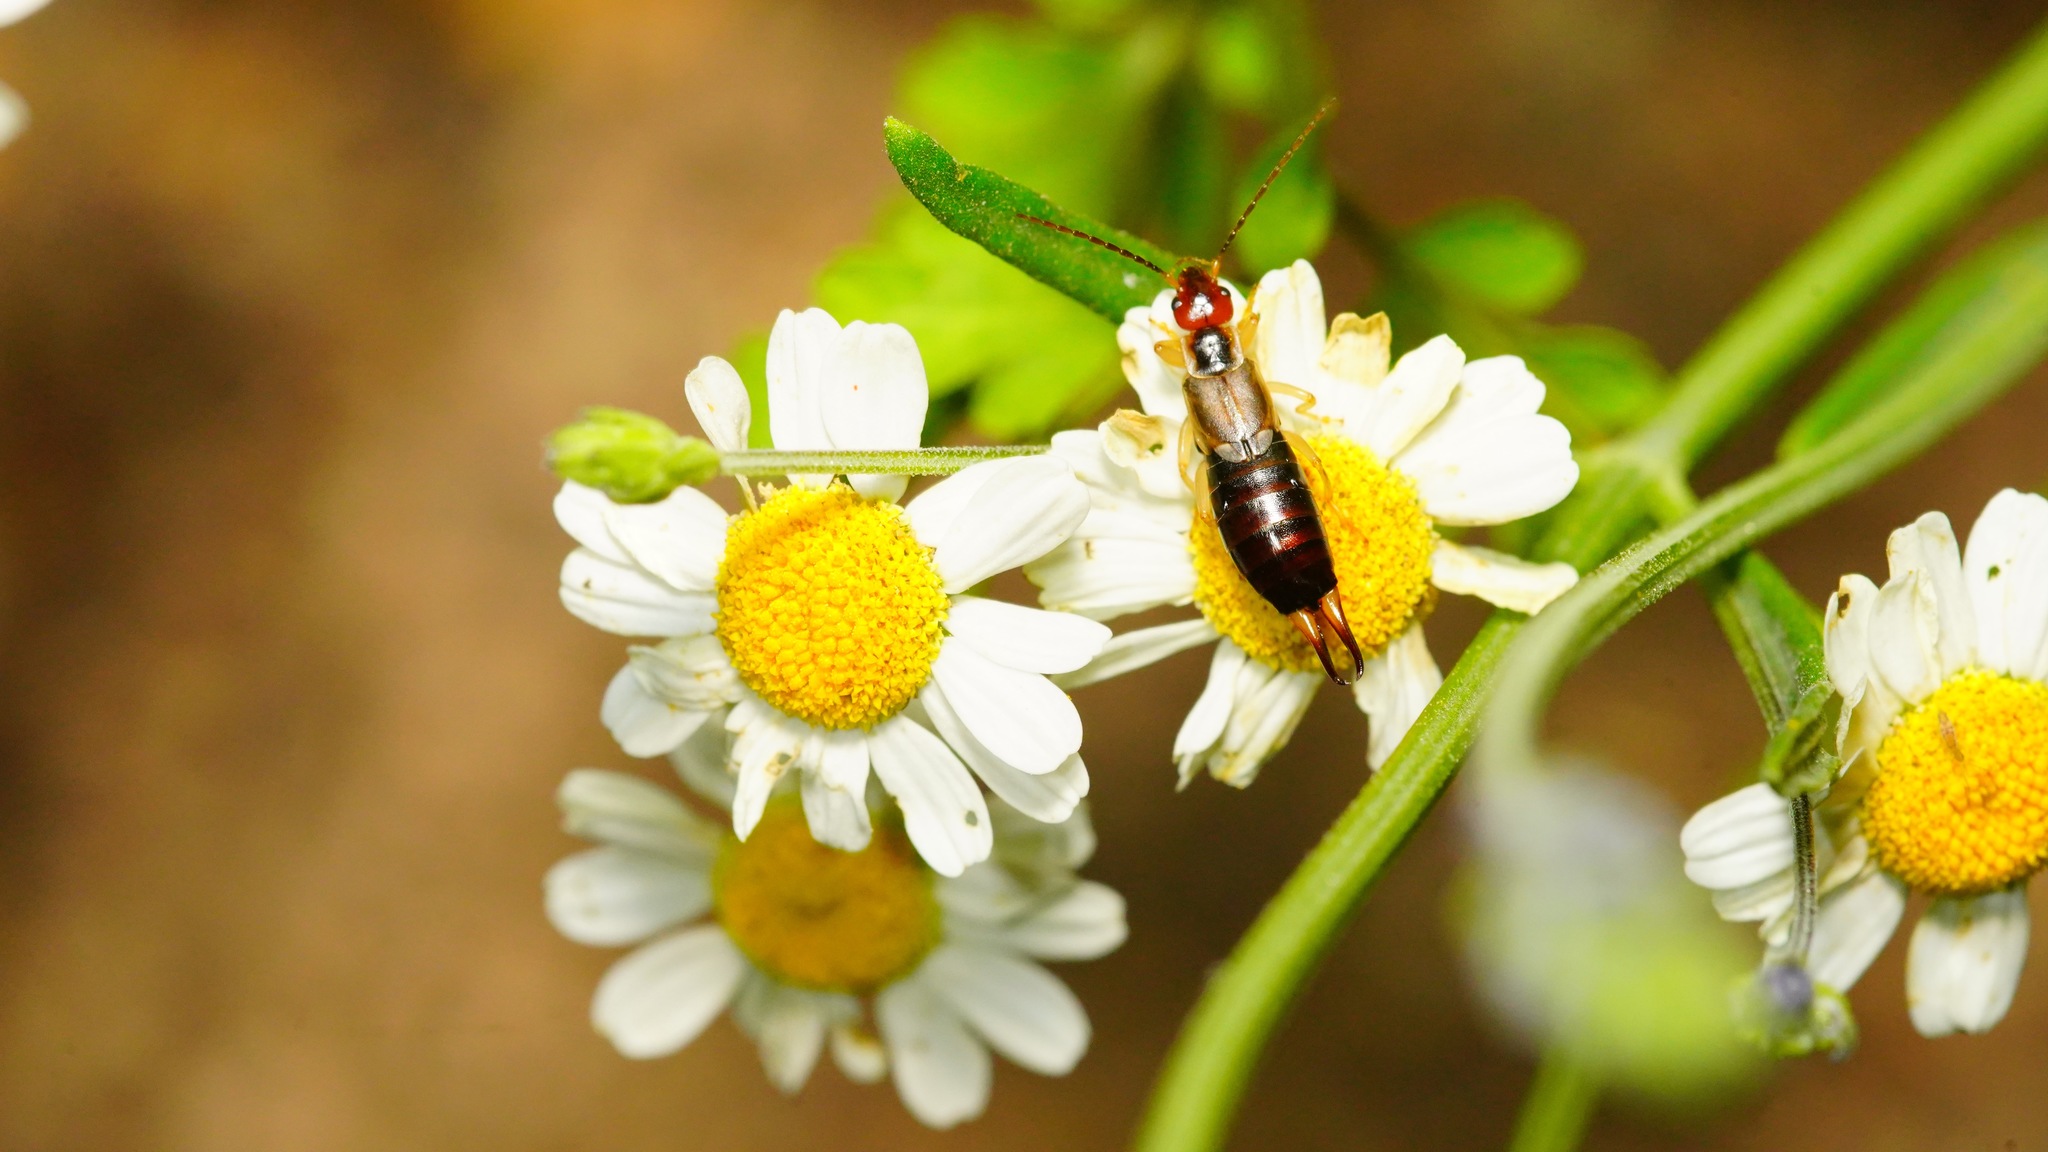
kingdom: Animalia
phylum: Arthropoda
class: Insecta
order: Dermaptera
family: Forficulidae
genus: Forficula
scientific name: Forficula
